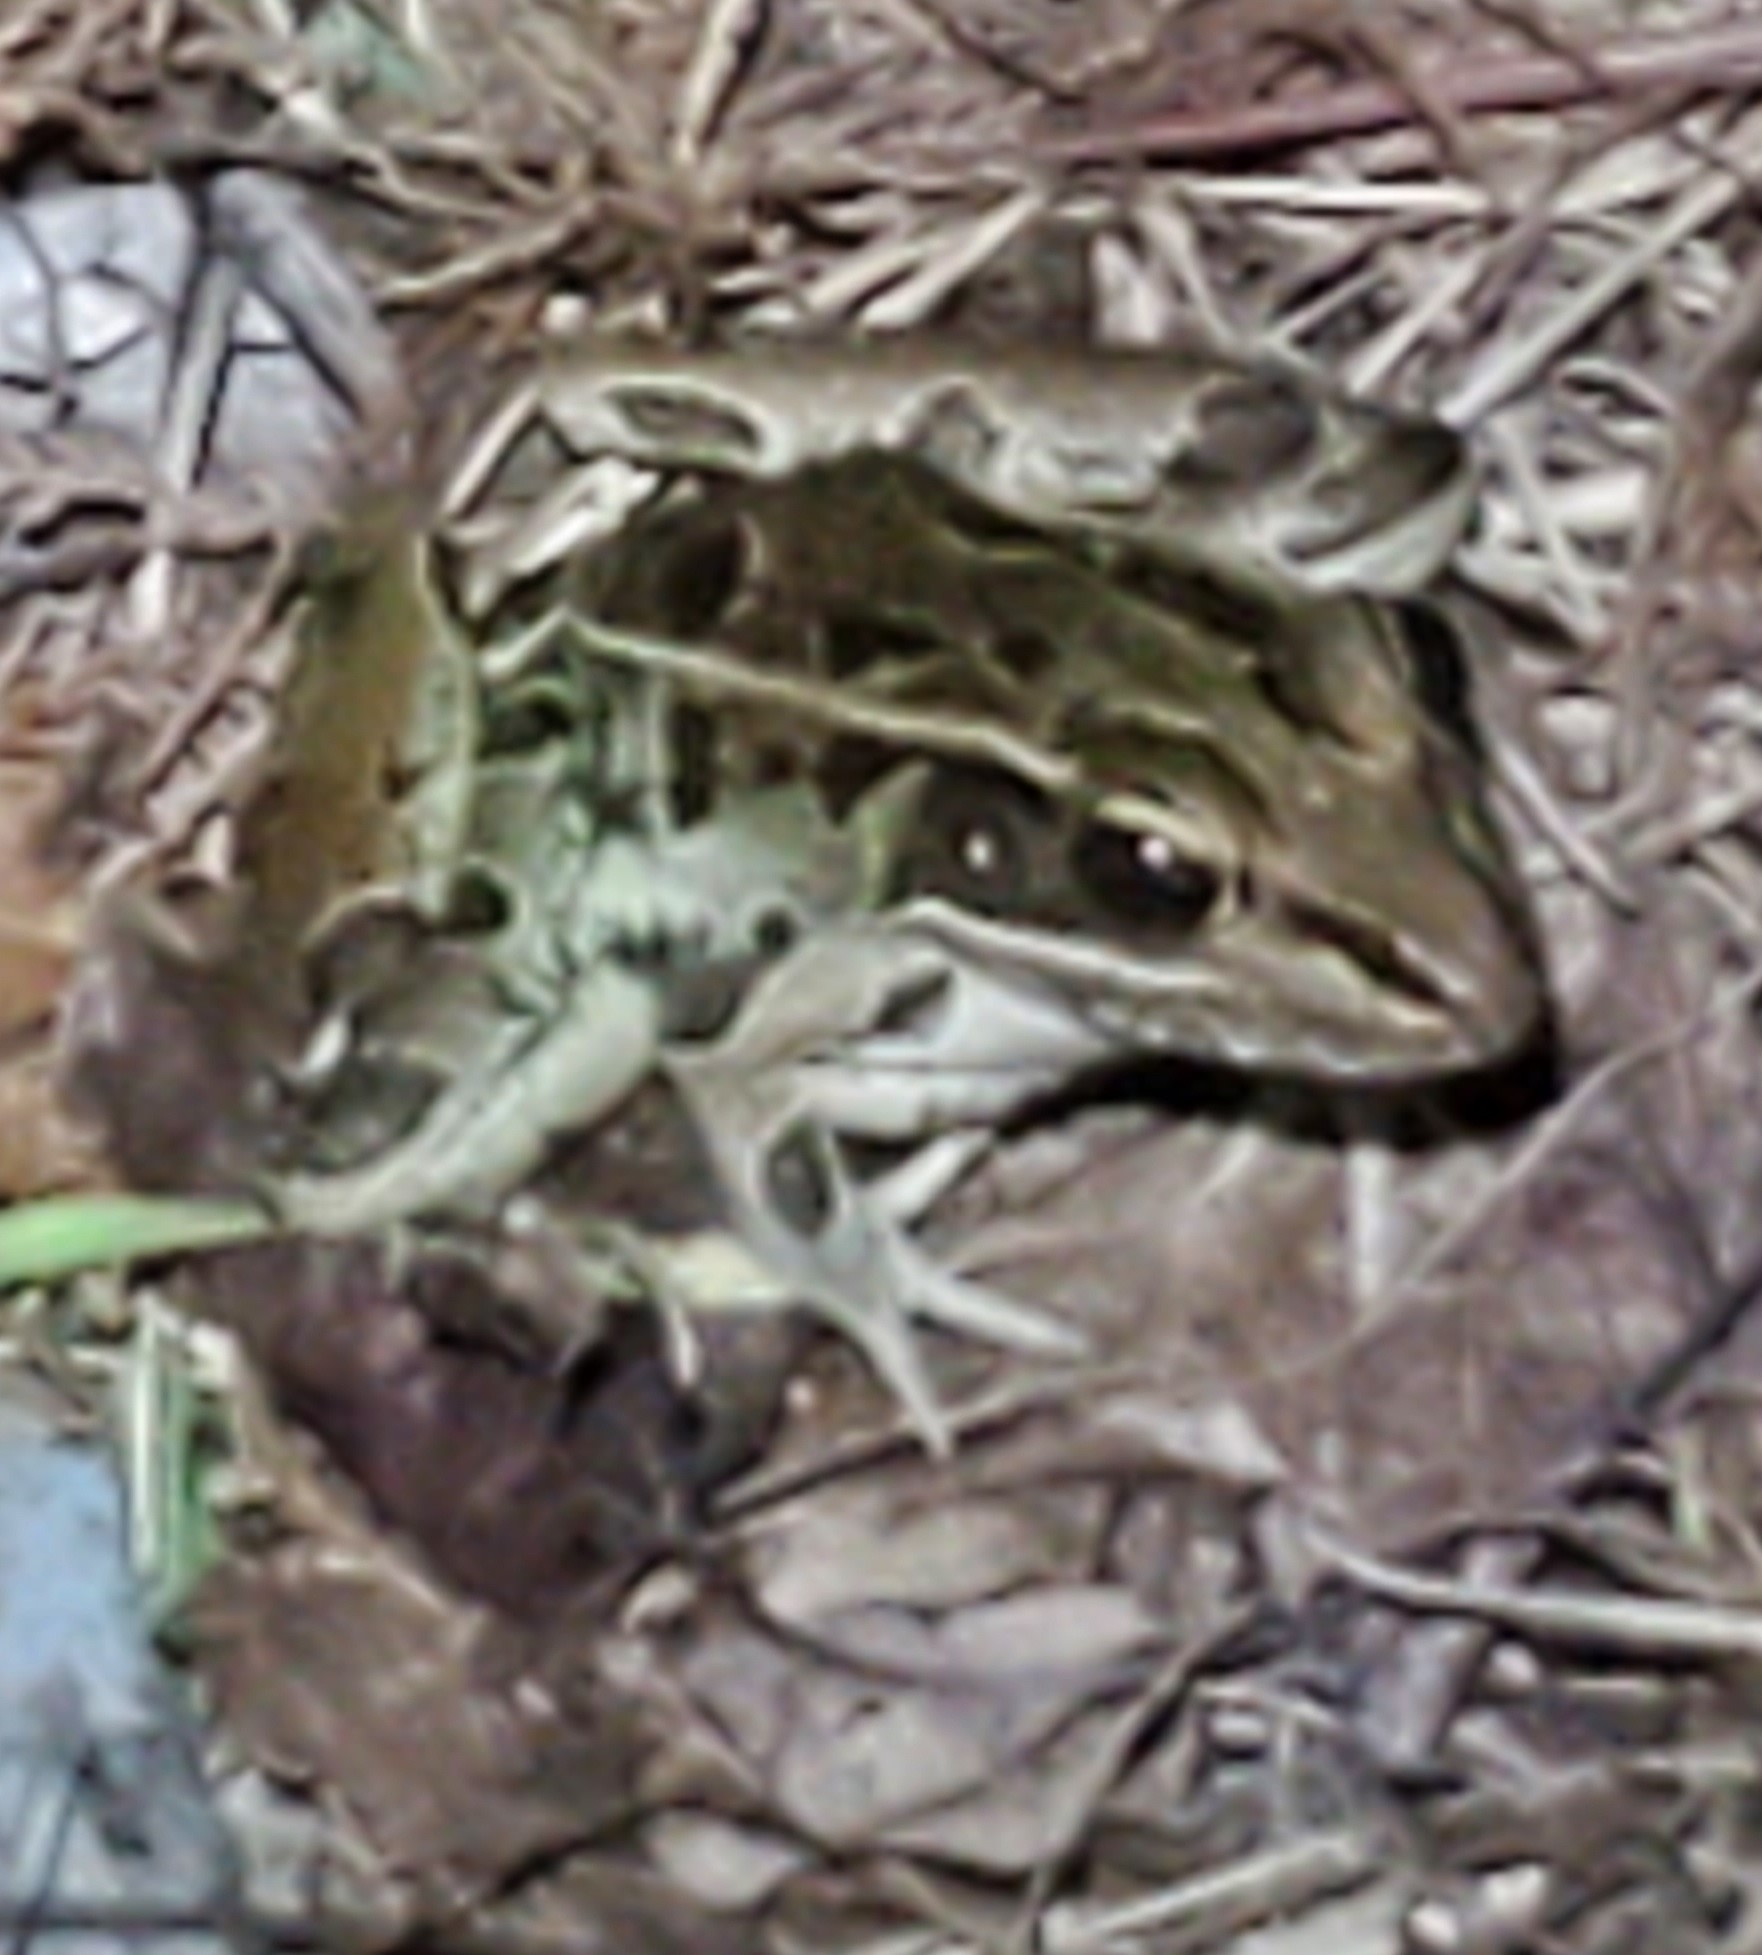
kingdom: Animalia
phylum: Chordata
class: Amphibia
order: Anura
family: Ranidae
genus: Lithobates
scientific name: Lithobates sphenocephalus
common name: Southern leopard frog
